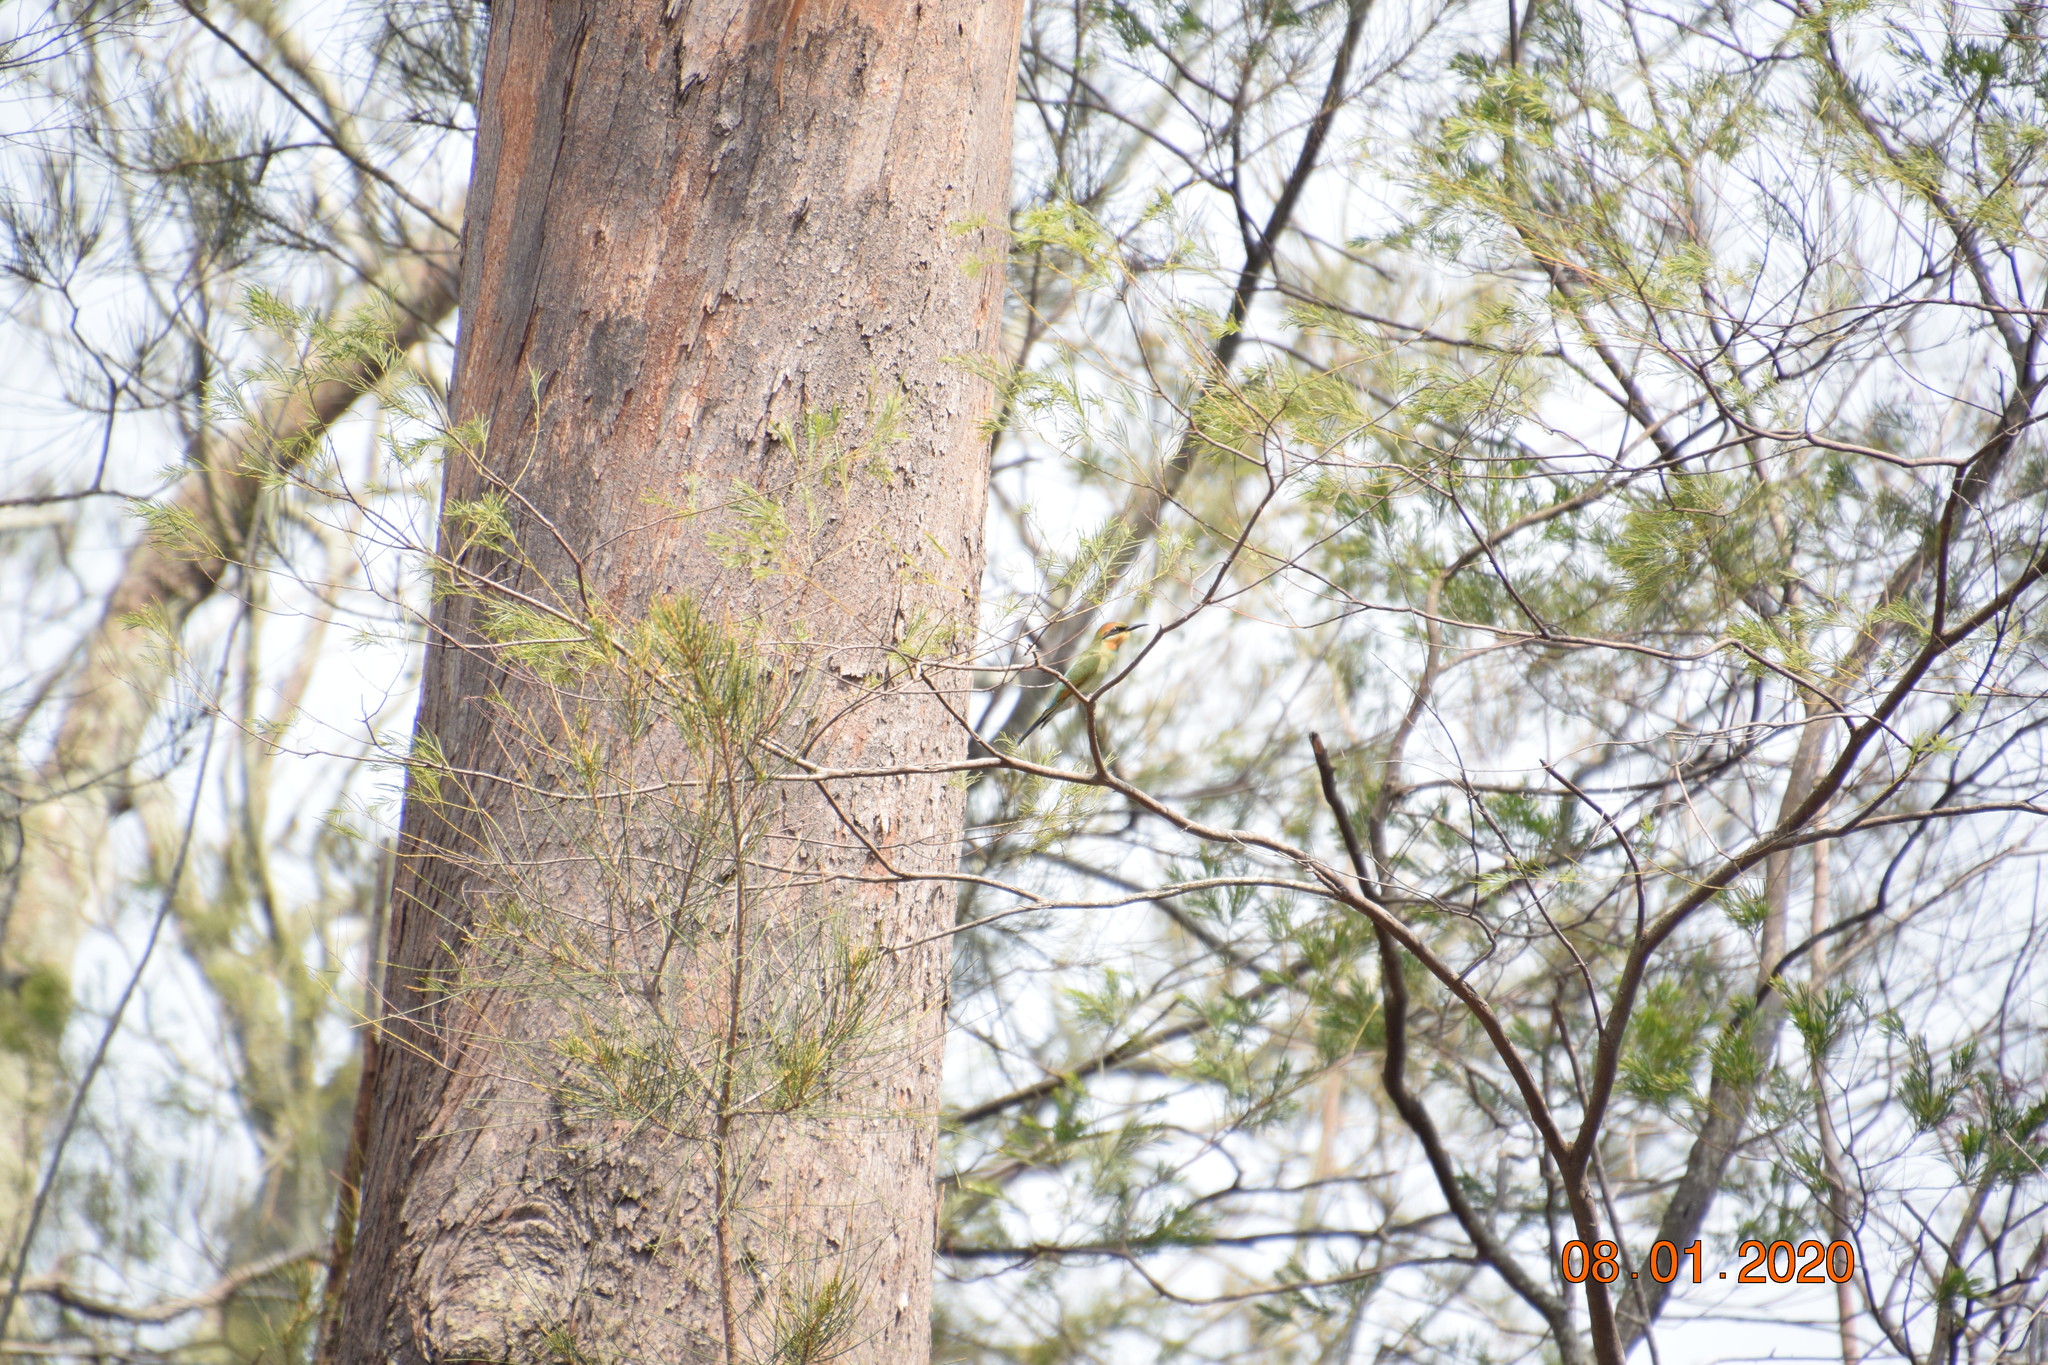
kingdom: Animalia
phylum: Chordata
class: Aves
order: Coraciiformes
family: Meropidae
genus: Merops
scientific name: Merops ornatus
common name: Rainbow bee-eater
